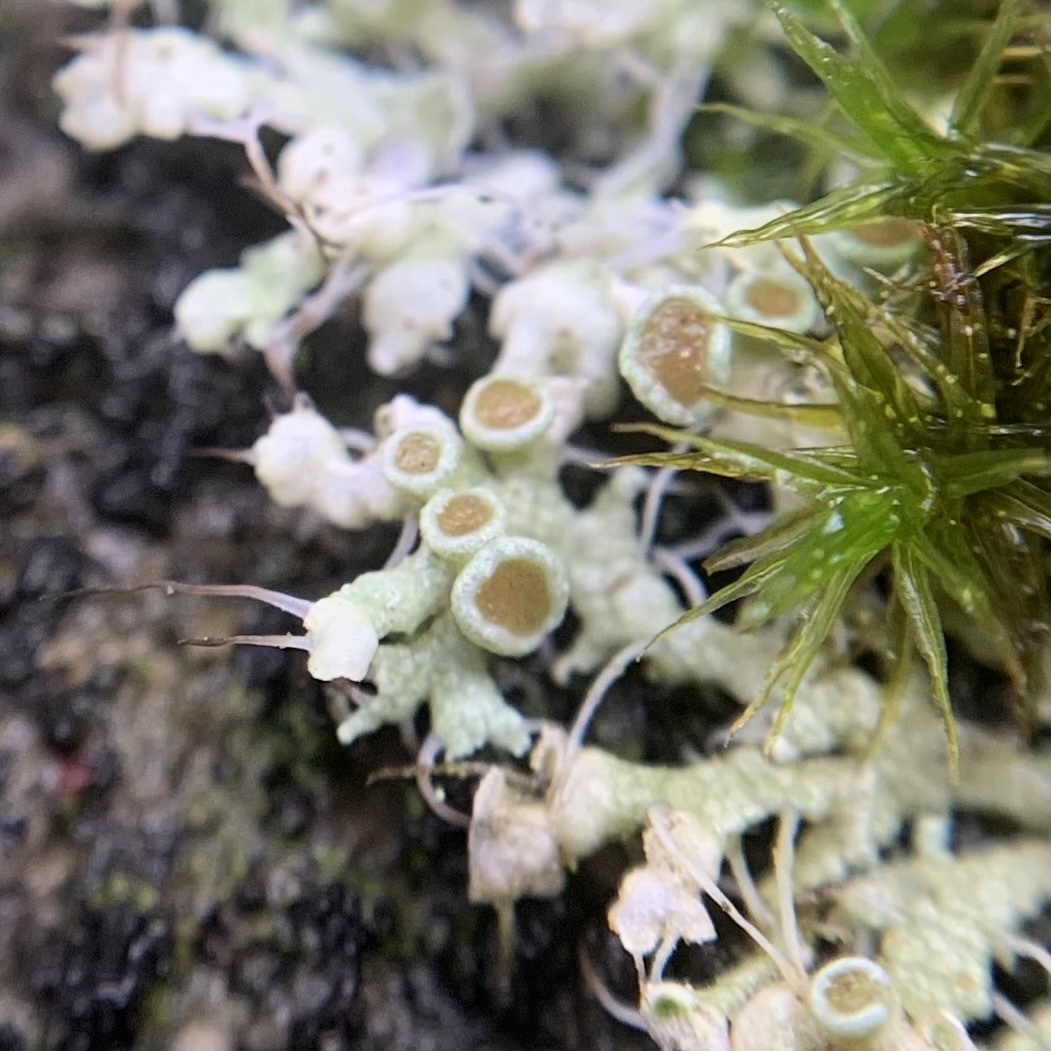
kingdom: Fungi
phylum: Ascomycota
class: Lecanoromycetes
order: Caliciales
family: Physciaceae
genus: Physcia
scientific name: Physcia adscendens
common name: Hooded rosette lichen
